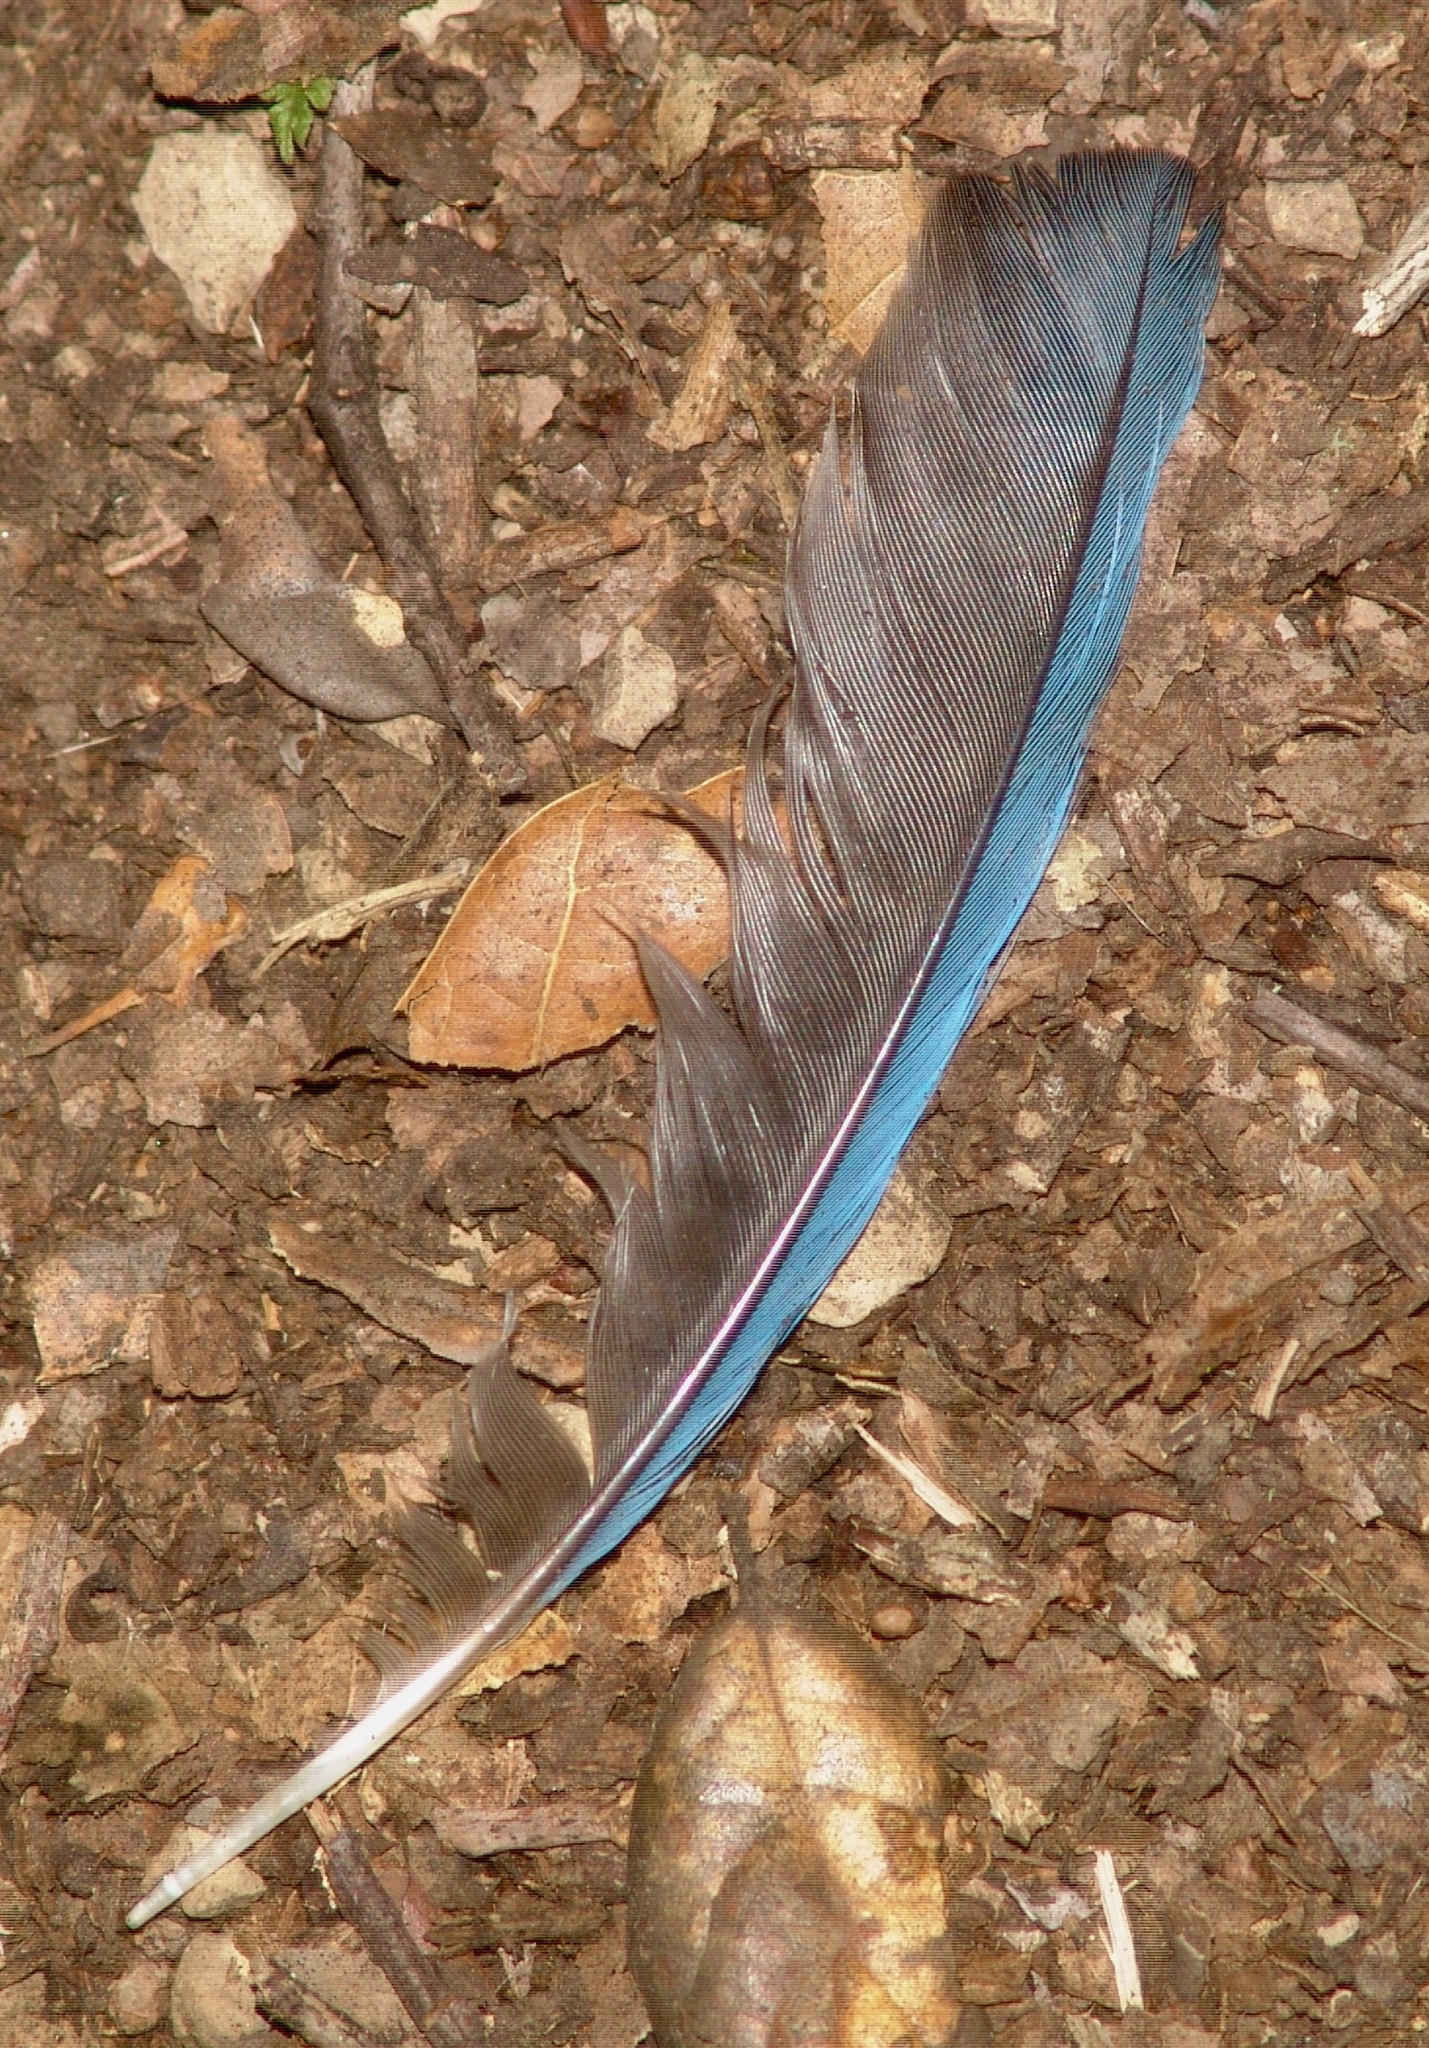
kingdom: Animalia
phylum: Chordata
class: Aves
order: Passeriformes
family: Corvidae
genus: Aphelocoma
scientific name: Aphelocoma californica
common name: California scrub-jay
